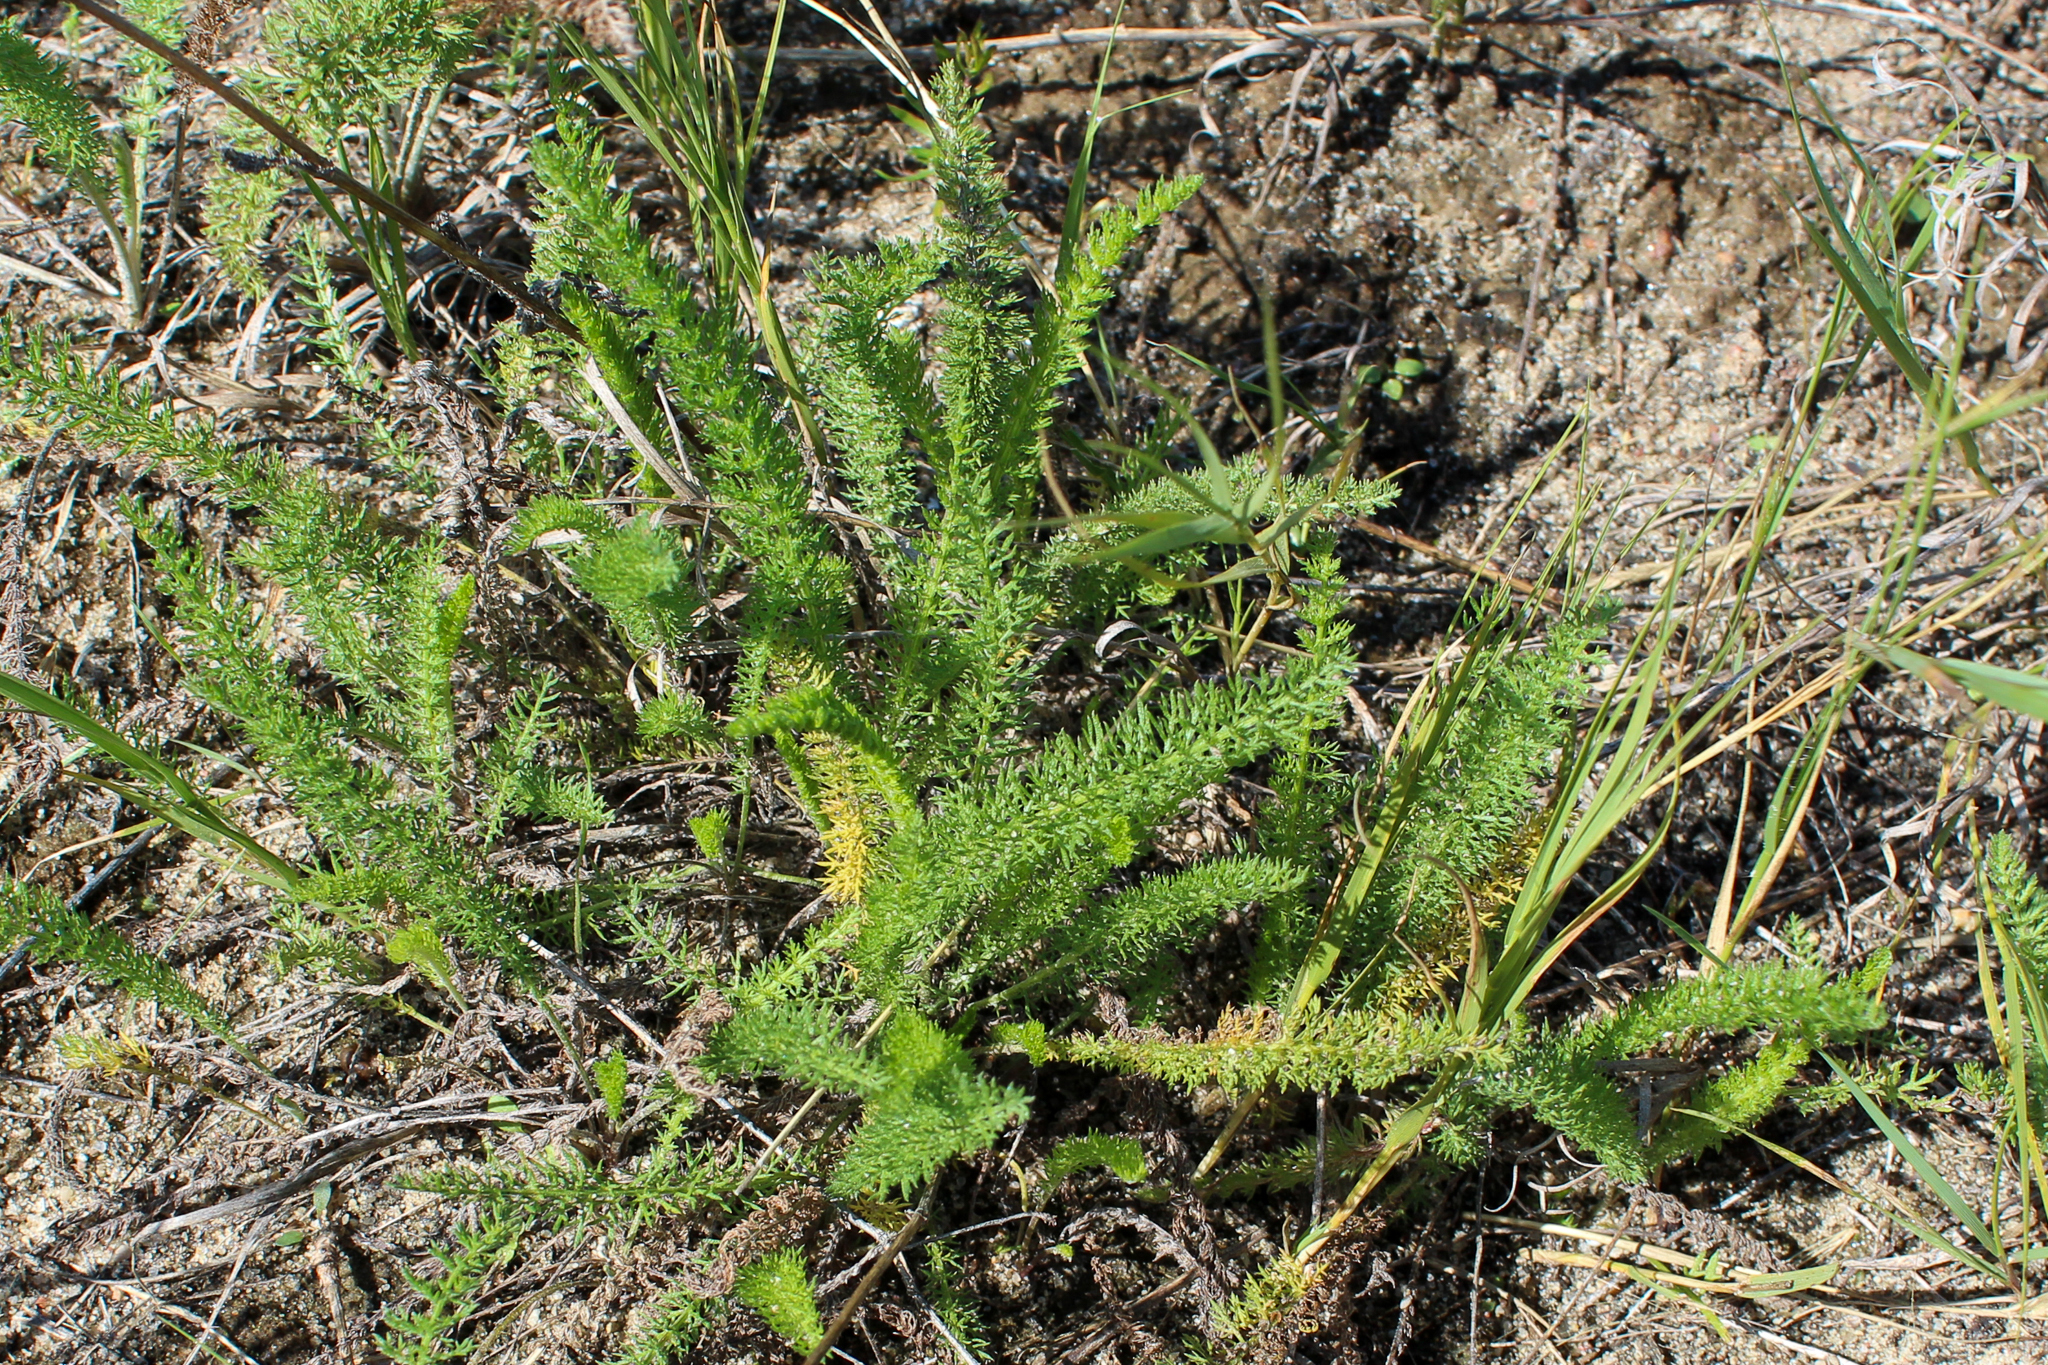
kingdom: Plantae
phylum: Tracheophyta
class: Magnoliopsida
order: Asterales
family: Asteraceae
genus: Achillea
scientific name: Achillea millefolium
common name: Yarrow
